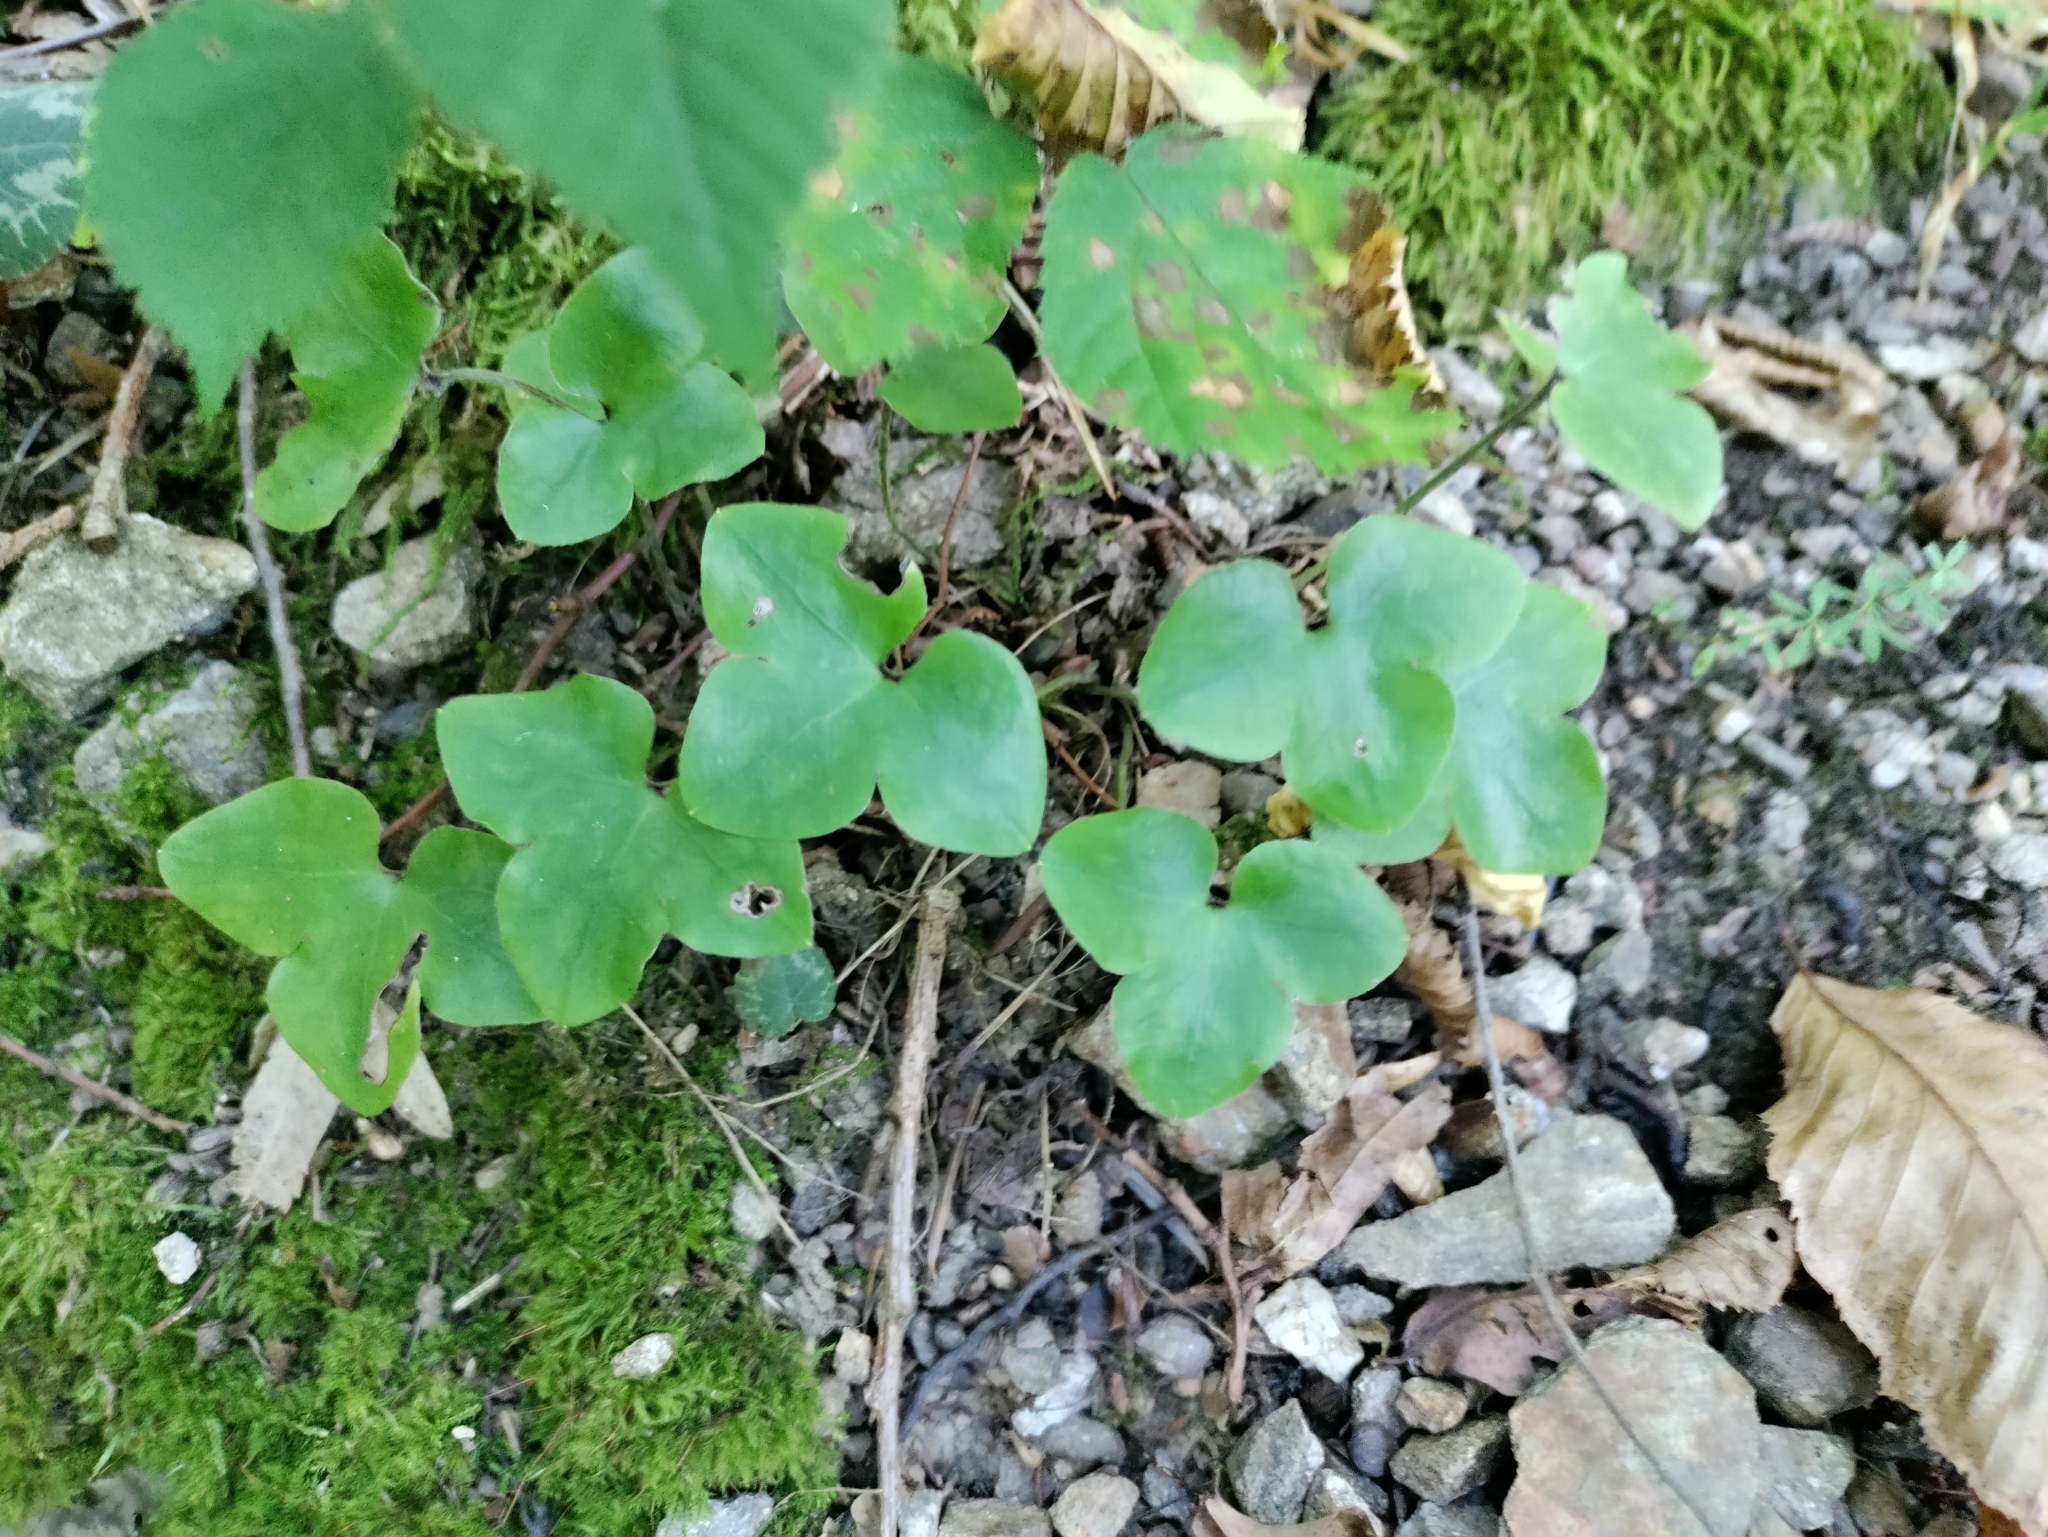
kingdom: Plantae
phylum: Tracheophyta
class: Magnoliopsida
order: Ranunculales
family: Ranunculaceae
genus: Hepatica
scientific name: Hepatica nobilis
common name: Liverleaf
